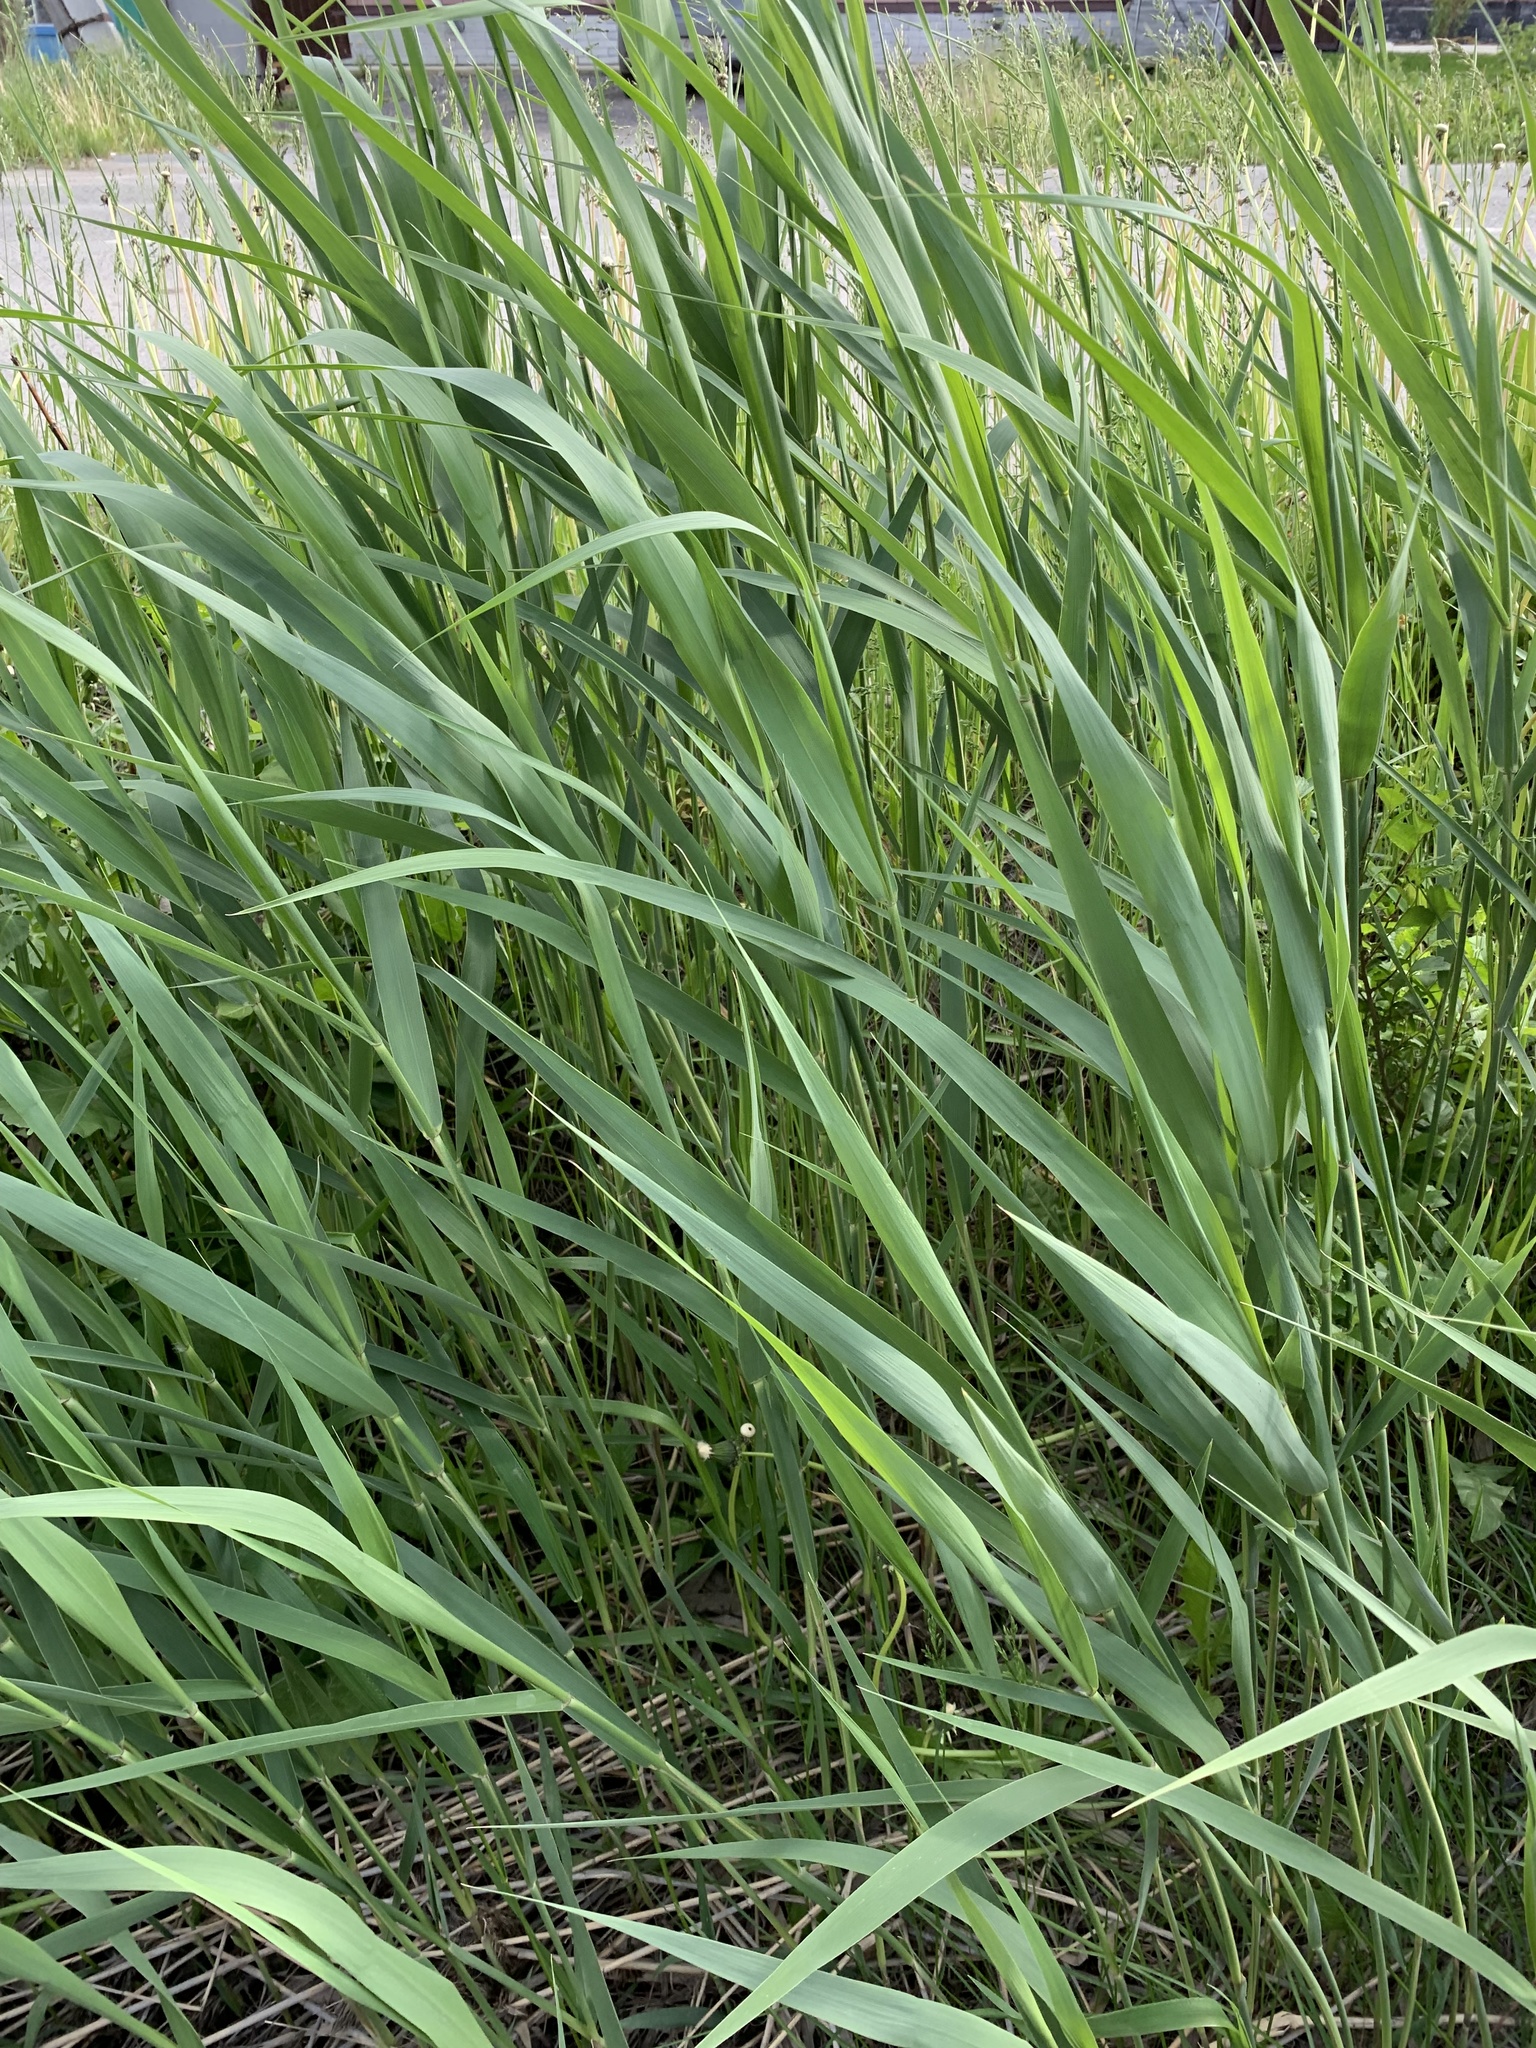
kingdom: Plantae
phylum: Tracheophyta
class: Liliopsida
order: Poales
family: Poaceae
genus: Phragmites
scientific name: Phragmites australis
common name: Common reed
